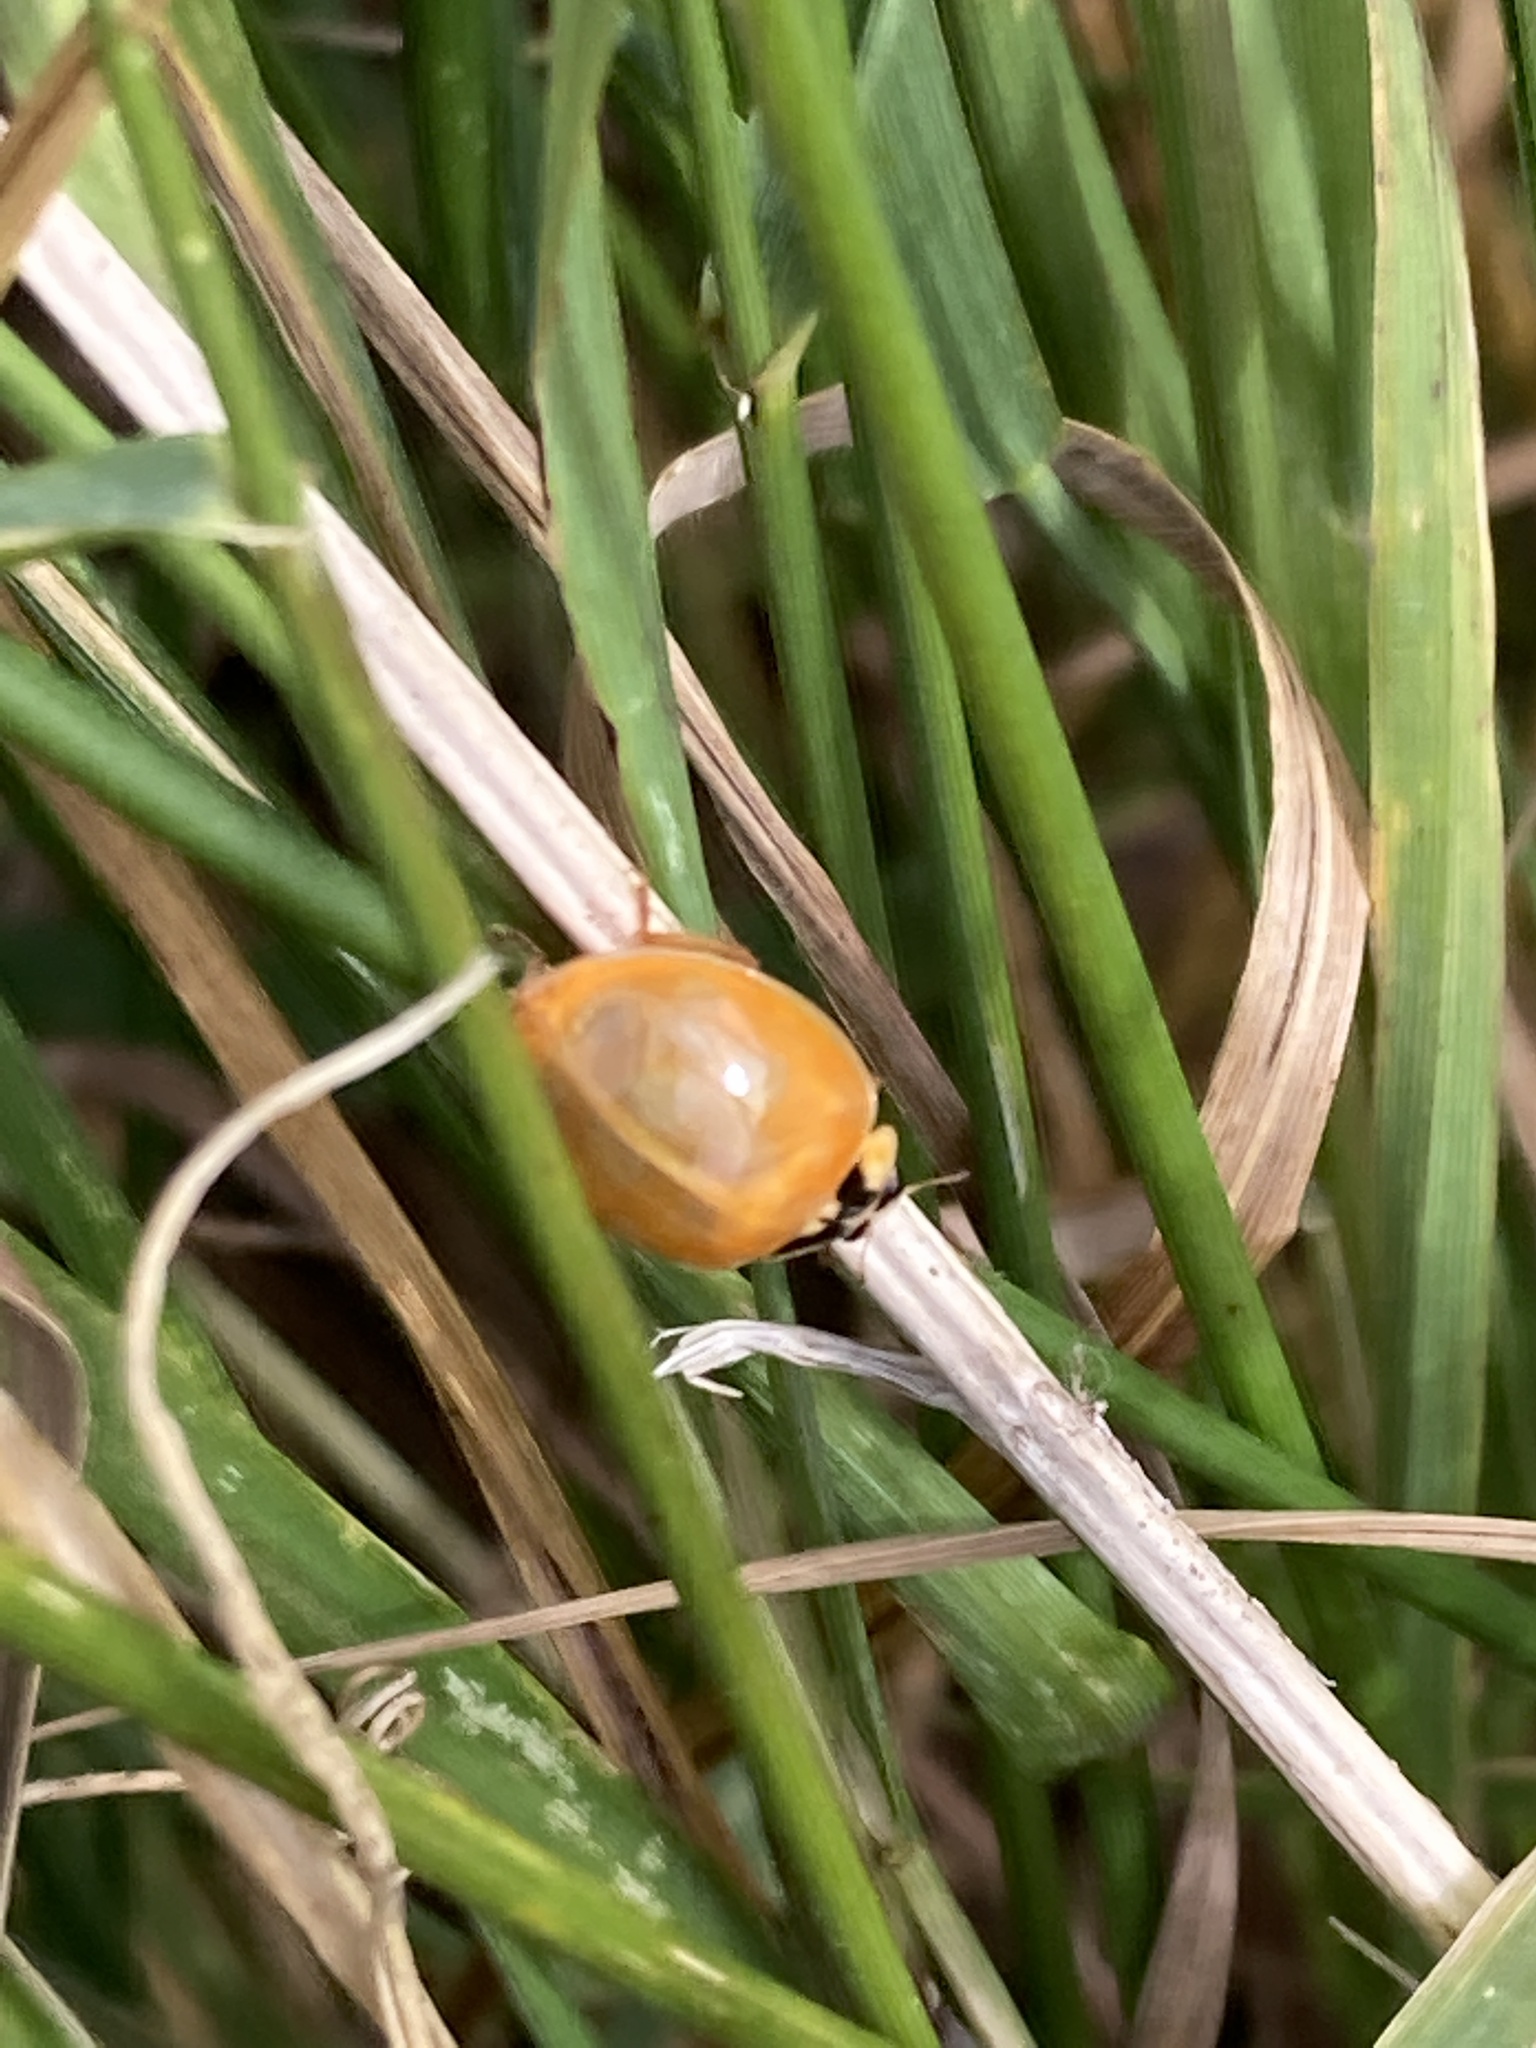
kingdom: Animalia
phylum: Arthropoda
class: Insecta
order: Coleoptera
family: Coccinellidae
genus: Harmonia
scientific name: Harmonia axyridis
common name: Harlequin ladybird
